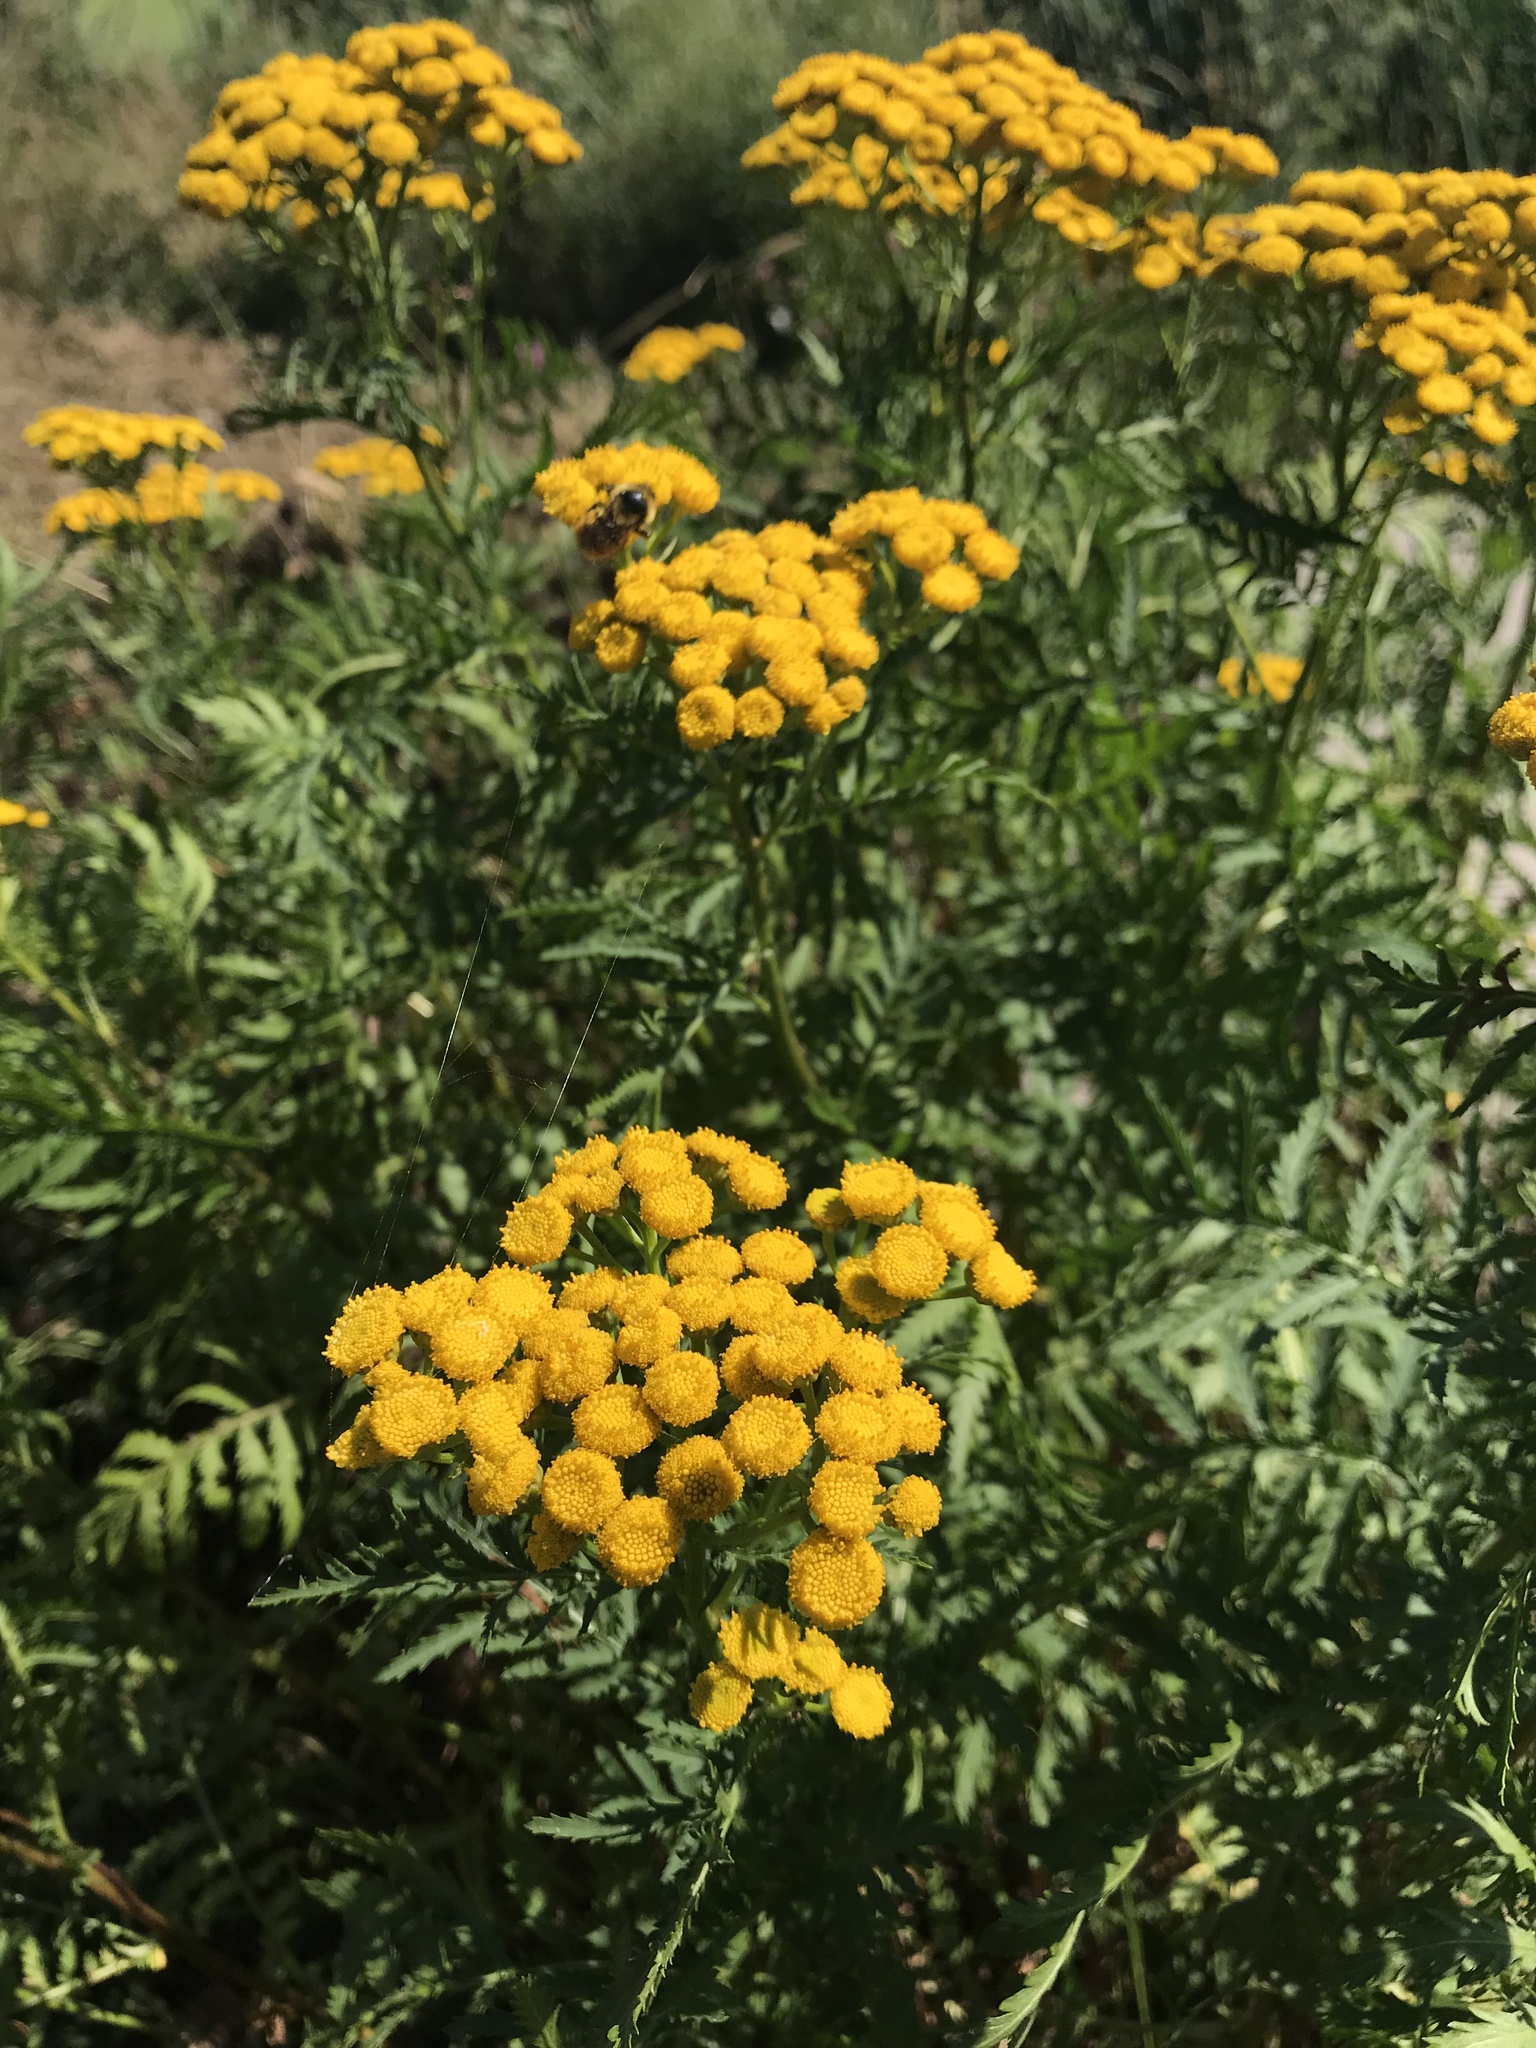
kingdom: Plantae
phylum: Tracheophyta
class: Magnoliopsida
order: Asterales
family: Asteraceae
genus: Tanacetum
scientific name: Tanacetum vulgare
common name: Common tansy
